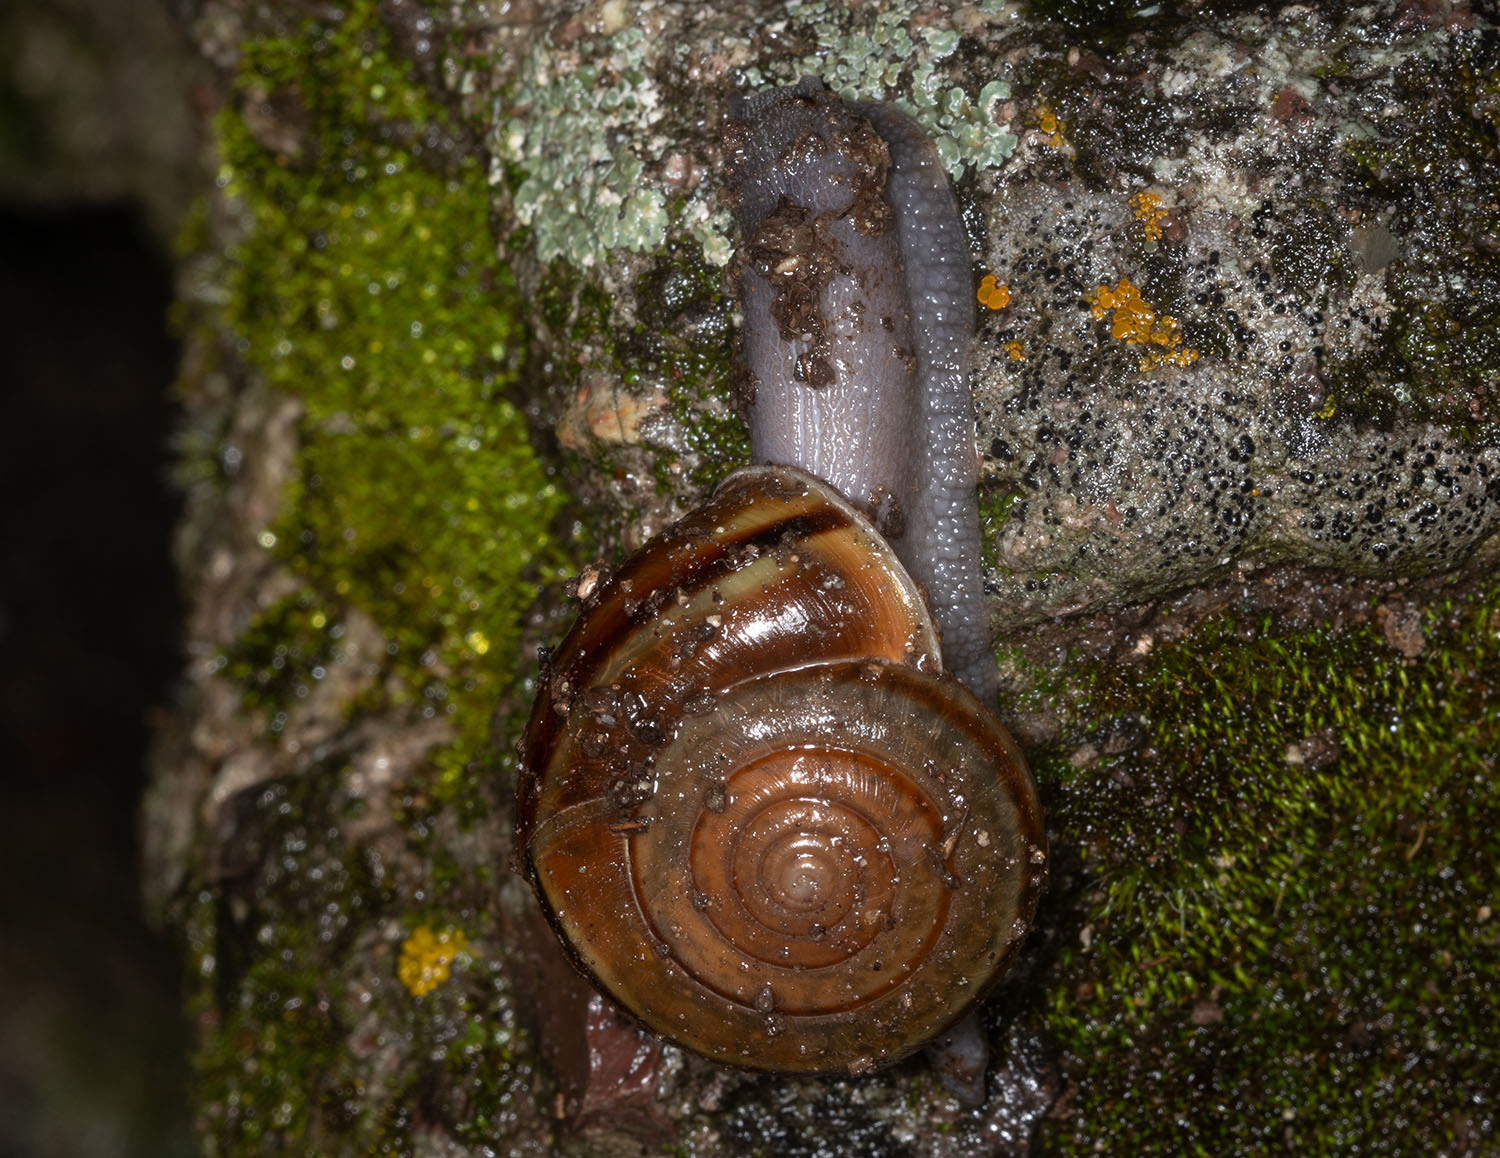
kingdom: Animalia
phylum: Mollusca
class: Gastropoda
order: Stylommatophora
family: Xanthonychidae
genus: Helminthoglypta
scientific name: Helminthoglypta benitoensis
